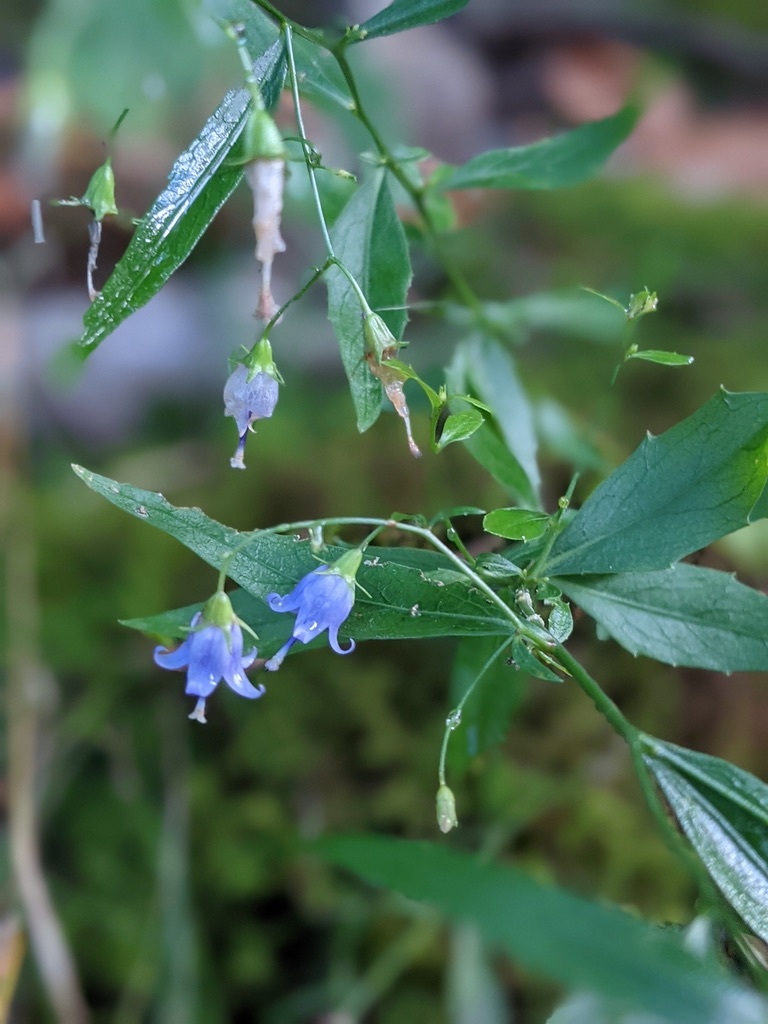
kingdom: Plantae
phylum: Tracheophyta
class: Magnoliopsida
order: Asterales
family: Campanulaceae
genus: Campanula
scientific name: Campanula divaricata
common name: Appalachian bellflower
